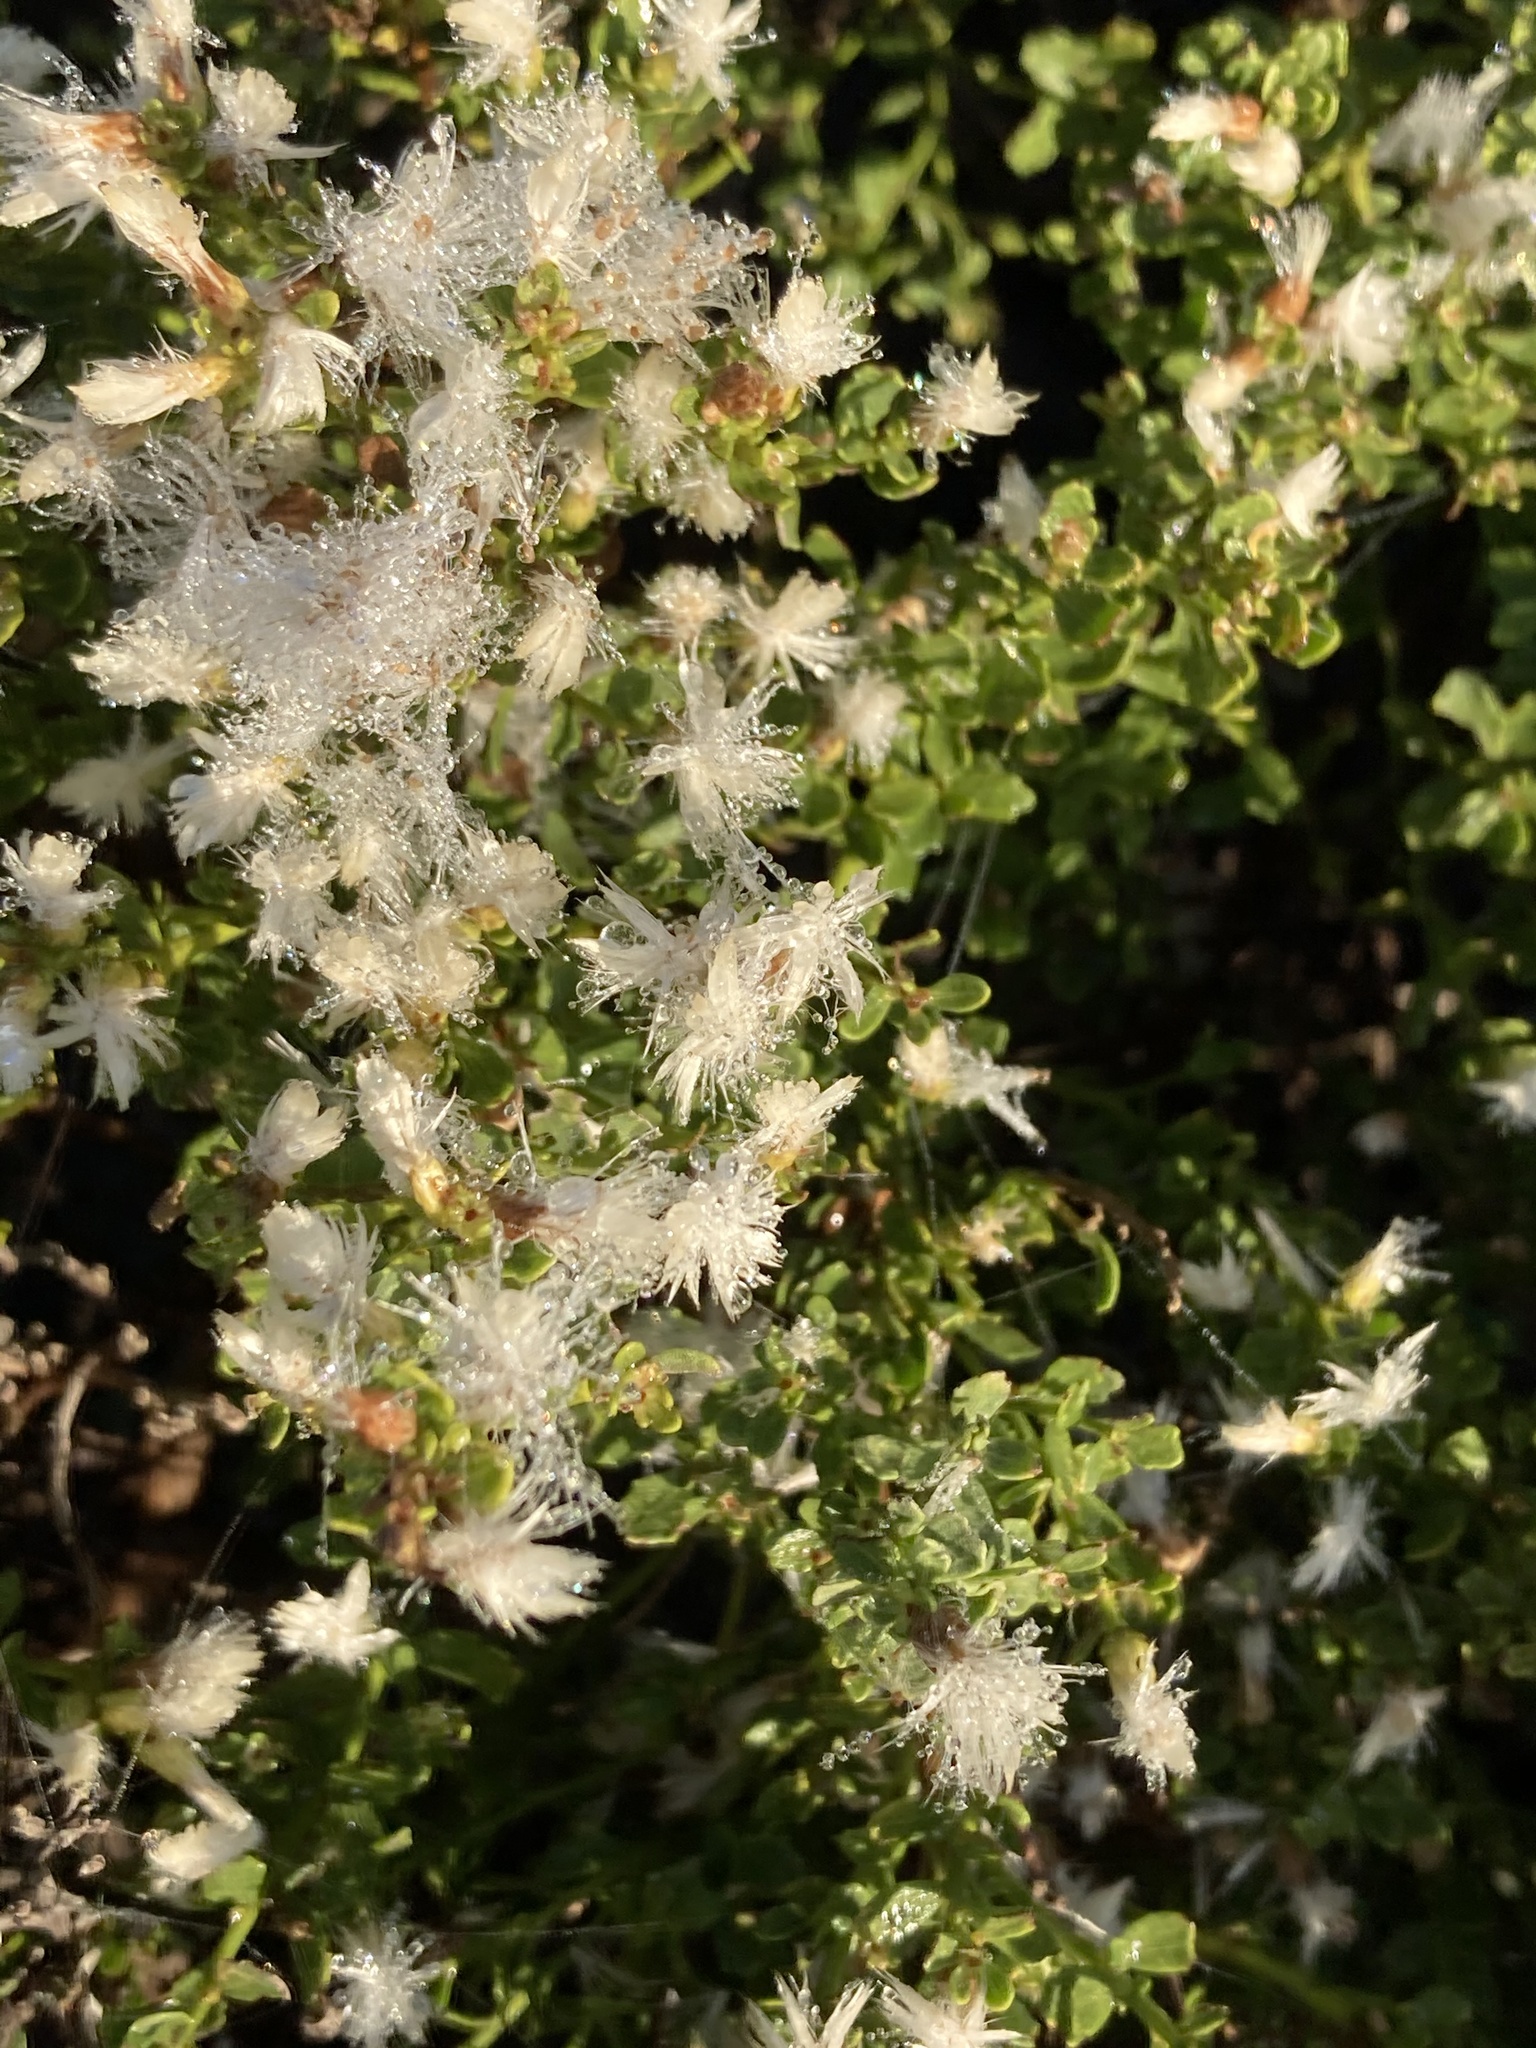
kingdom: Plantae
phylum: Tracheophyta
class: Magnoliopsida
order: Asterales
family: Asteraceae
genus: Baccharis
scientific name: Baccharis pilularis
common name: Coyotebrush
